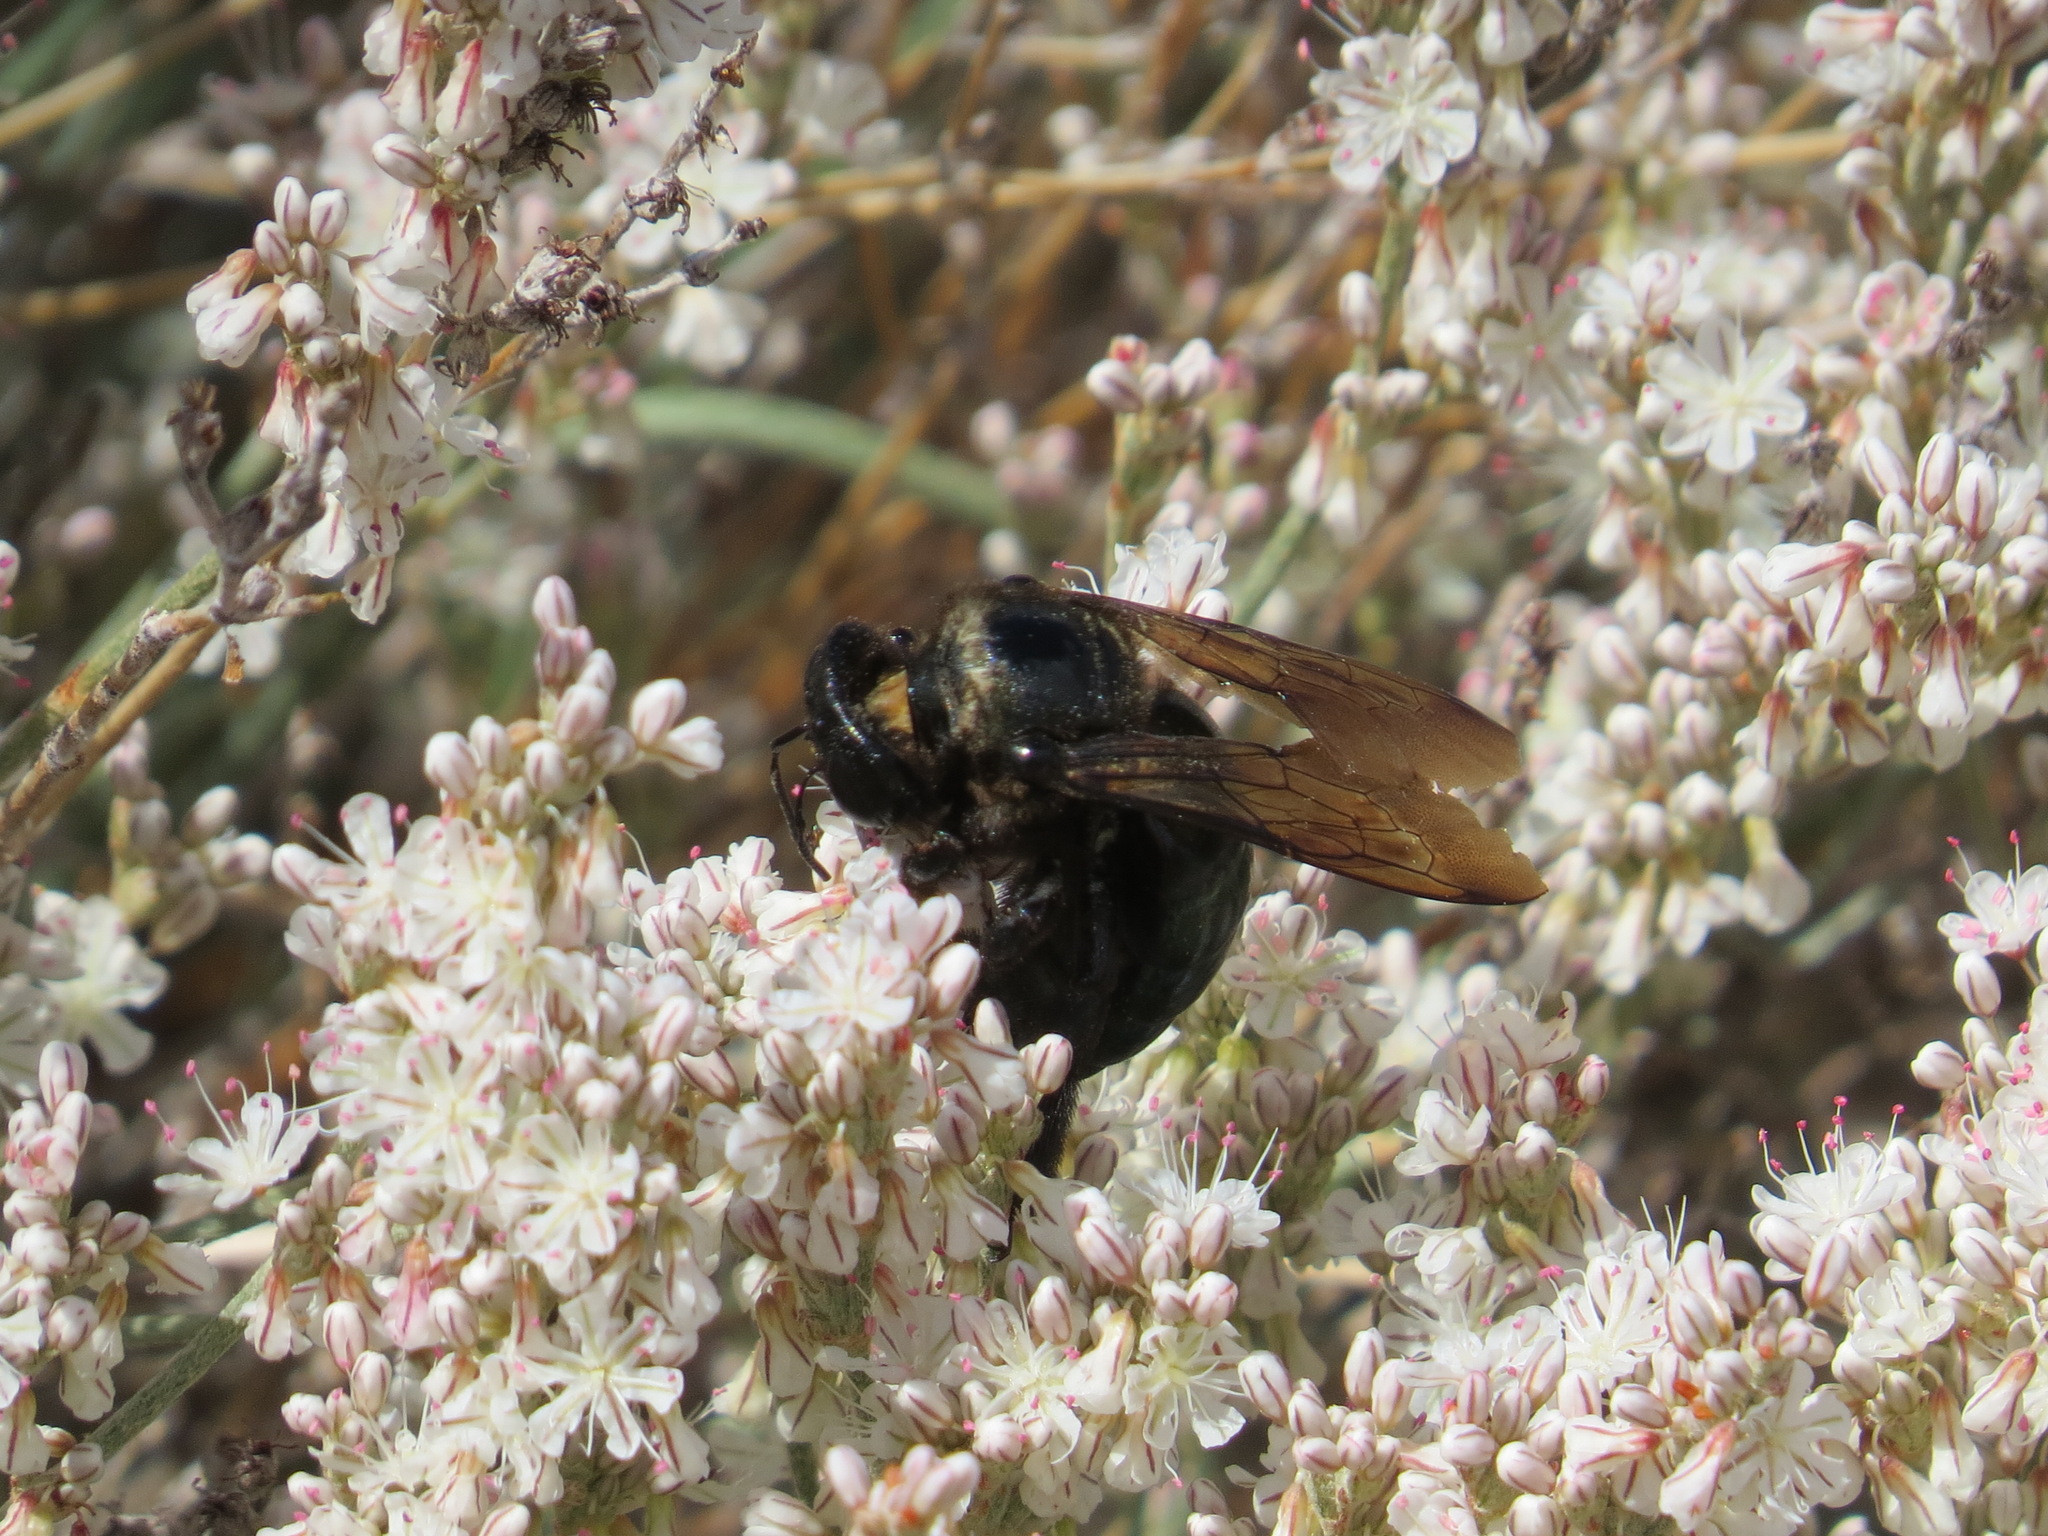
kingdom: Animalia
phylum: Arthropoda
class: Insecta
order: Hymenoptera
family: Apidae
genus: Xylocopa
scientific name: Xylocopa californica
